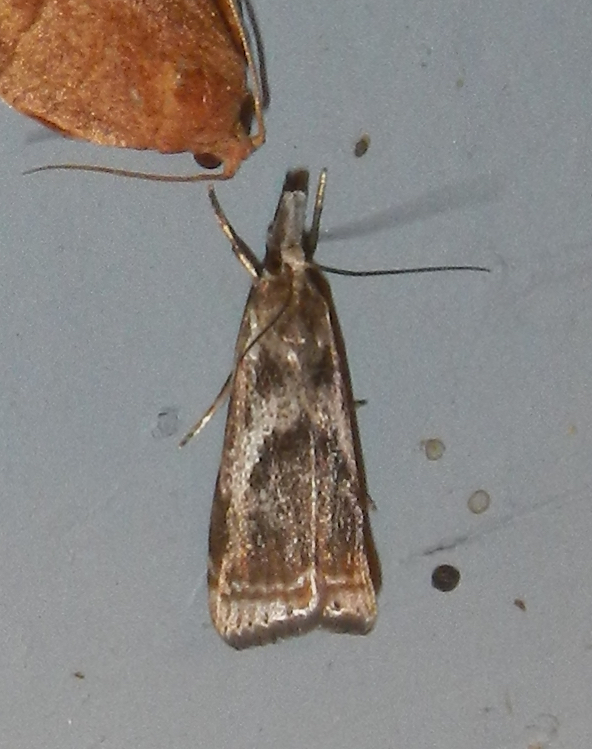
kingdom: Animalia
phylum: Arthropoda
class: Insecta
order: Lepidoptera
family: Crambidae
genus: Microcrambus
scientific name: Microcrambus elegans
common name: Elegant grass-veneer
